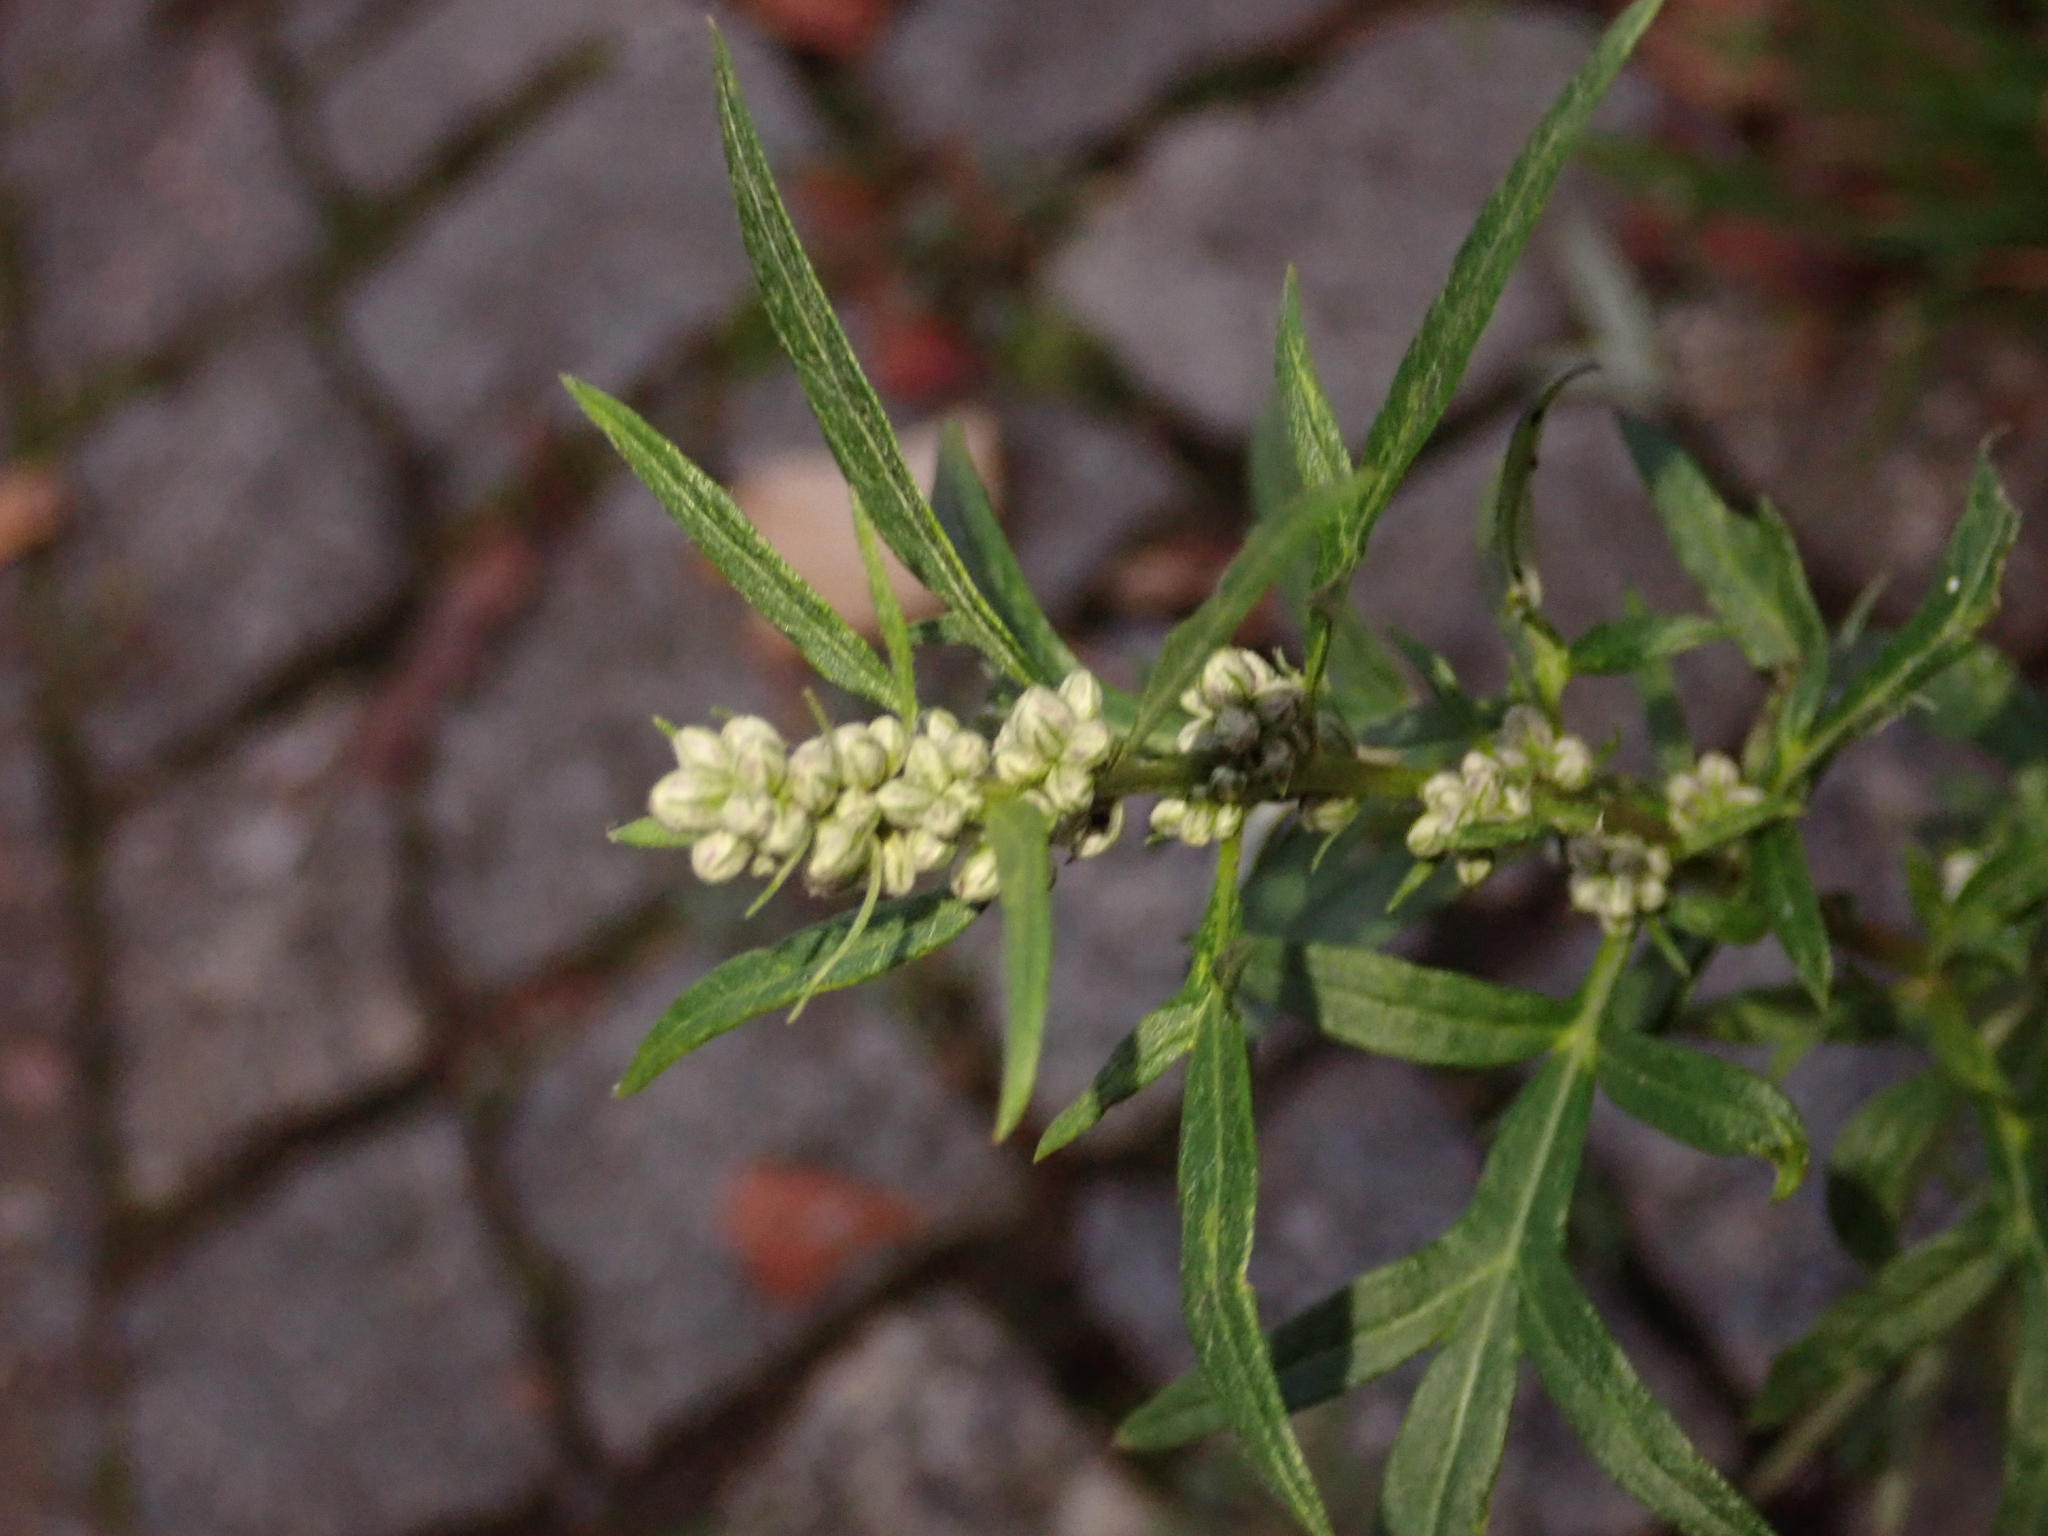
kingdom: Plantae
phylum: Tracheophyta
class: Magnoliopsida
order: Asterales
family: Asteraceae
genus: Artemisia
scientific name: Artemisia vulgaris
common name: Mugwort
